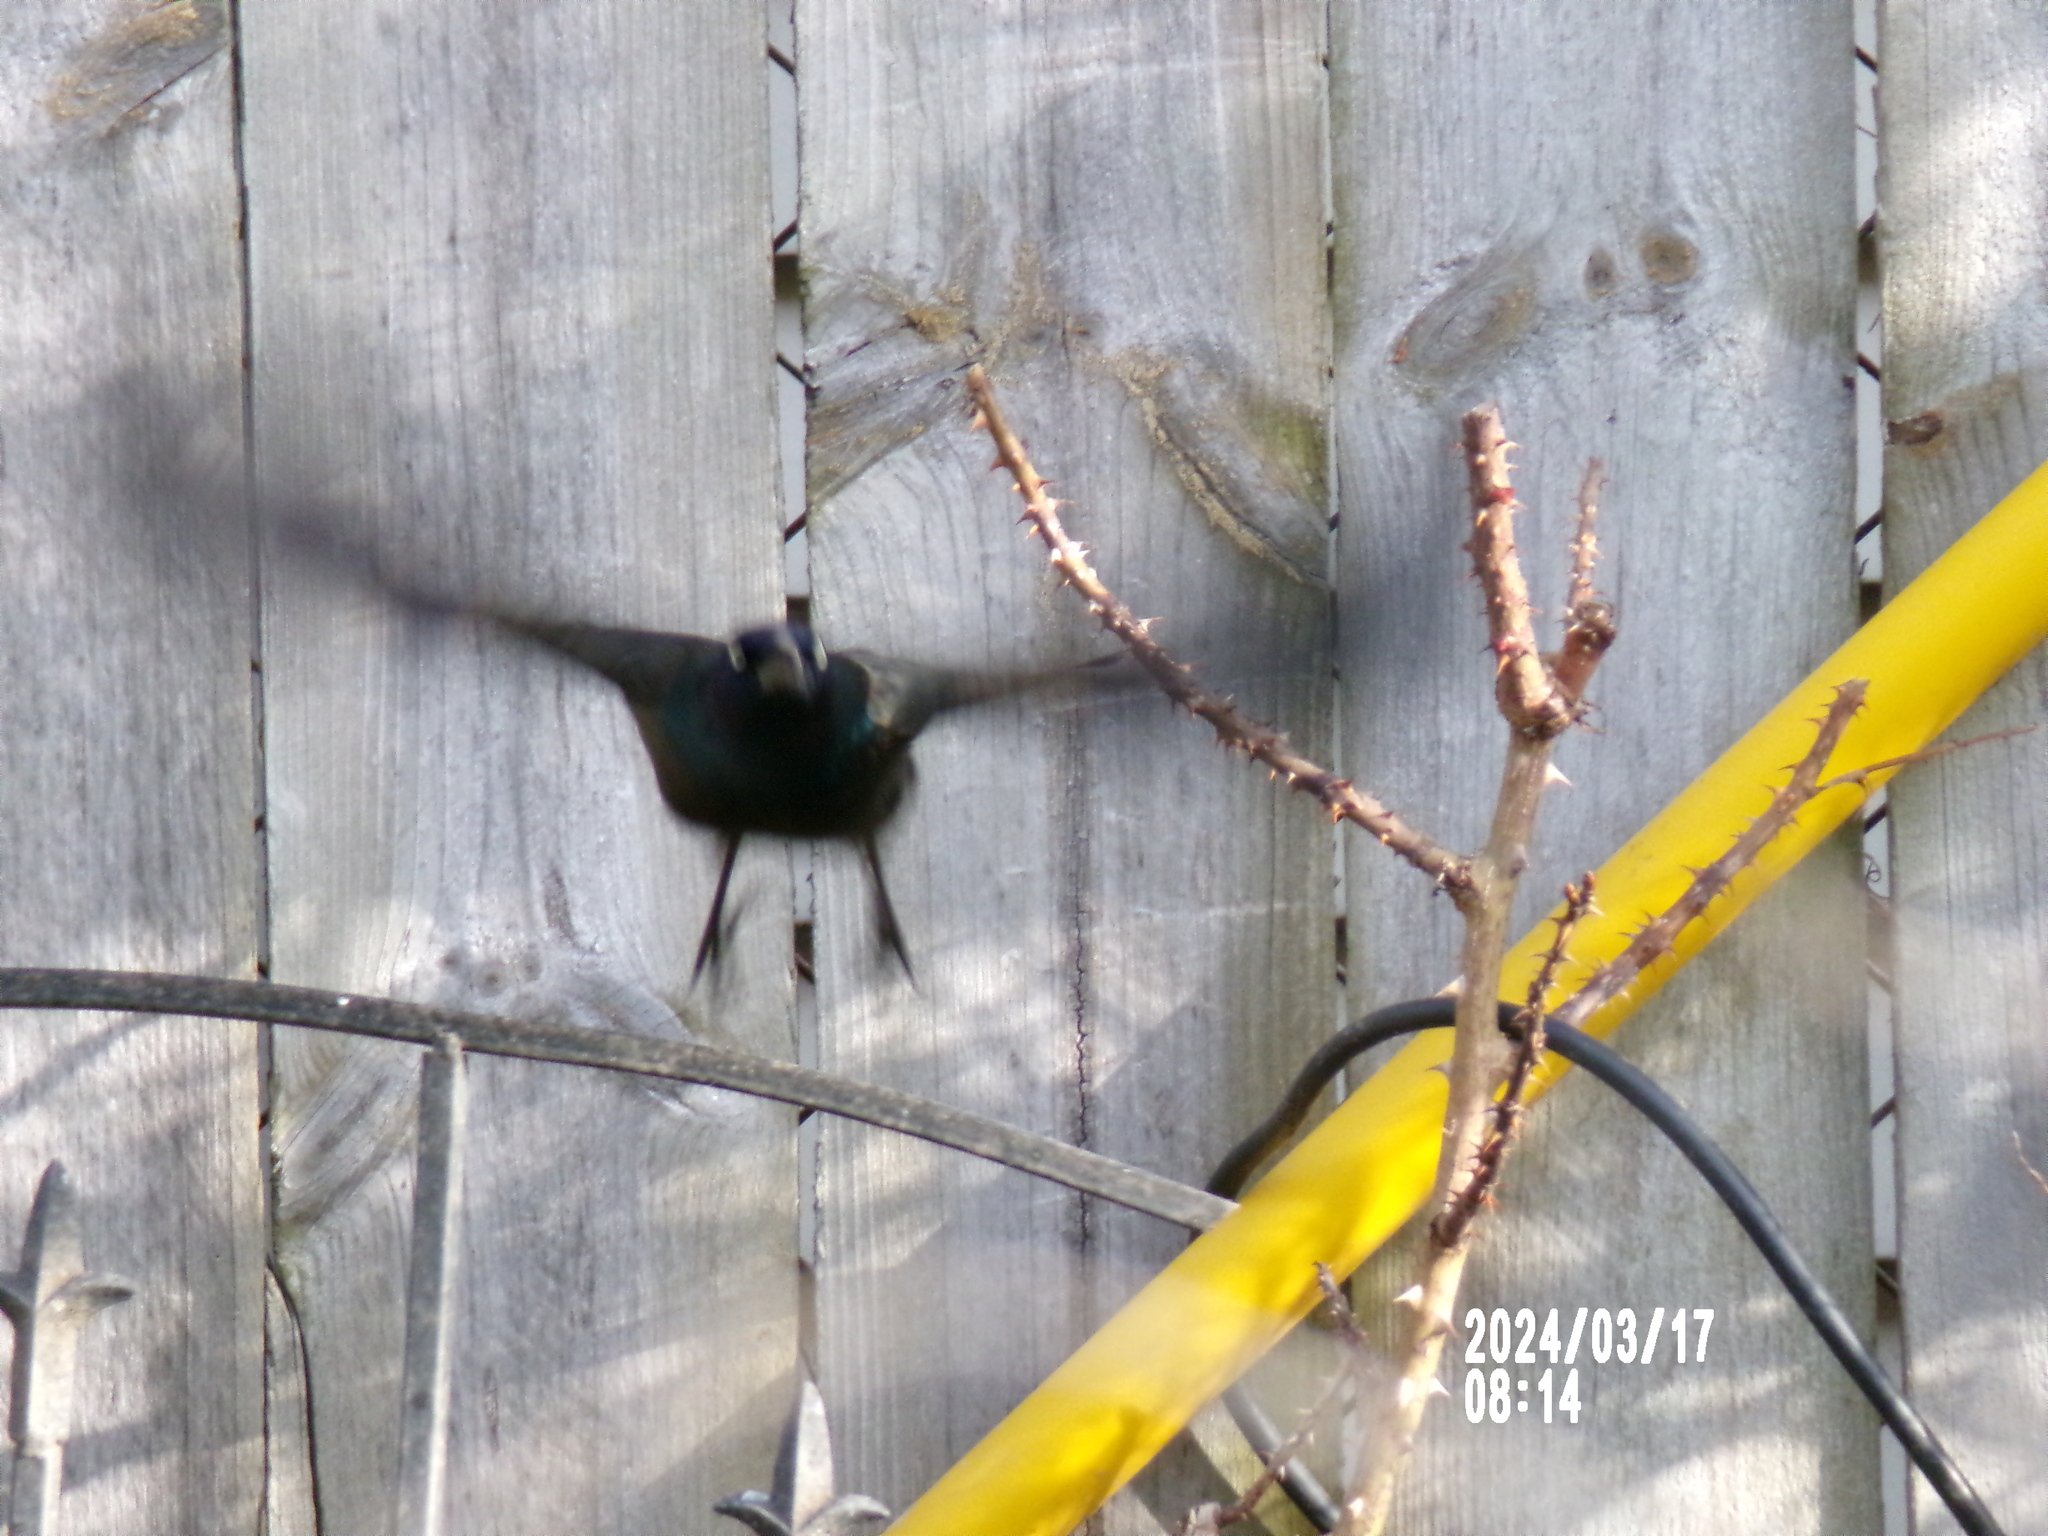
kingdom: Animalia
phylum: Chordata
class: Aves
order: Passeriformes
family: Icteridae
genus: Quiscalus
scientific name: Quiscalus quiscula
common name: Common grackle
